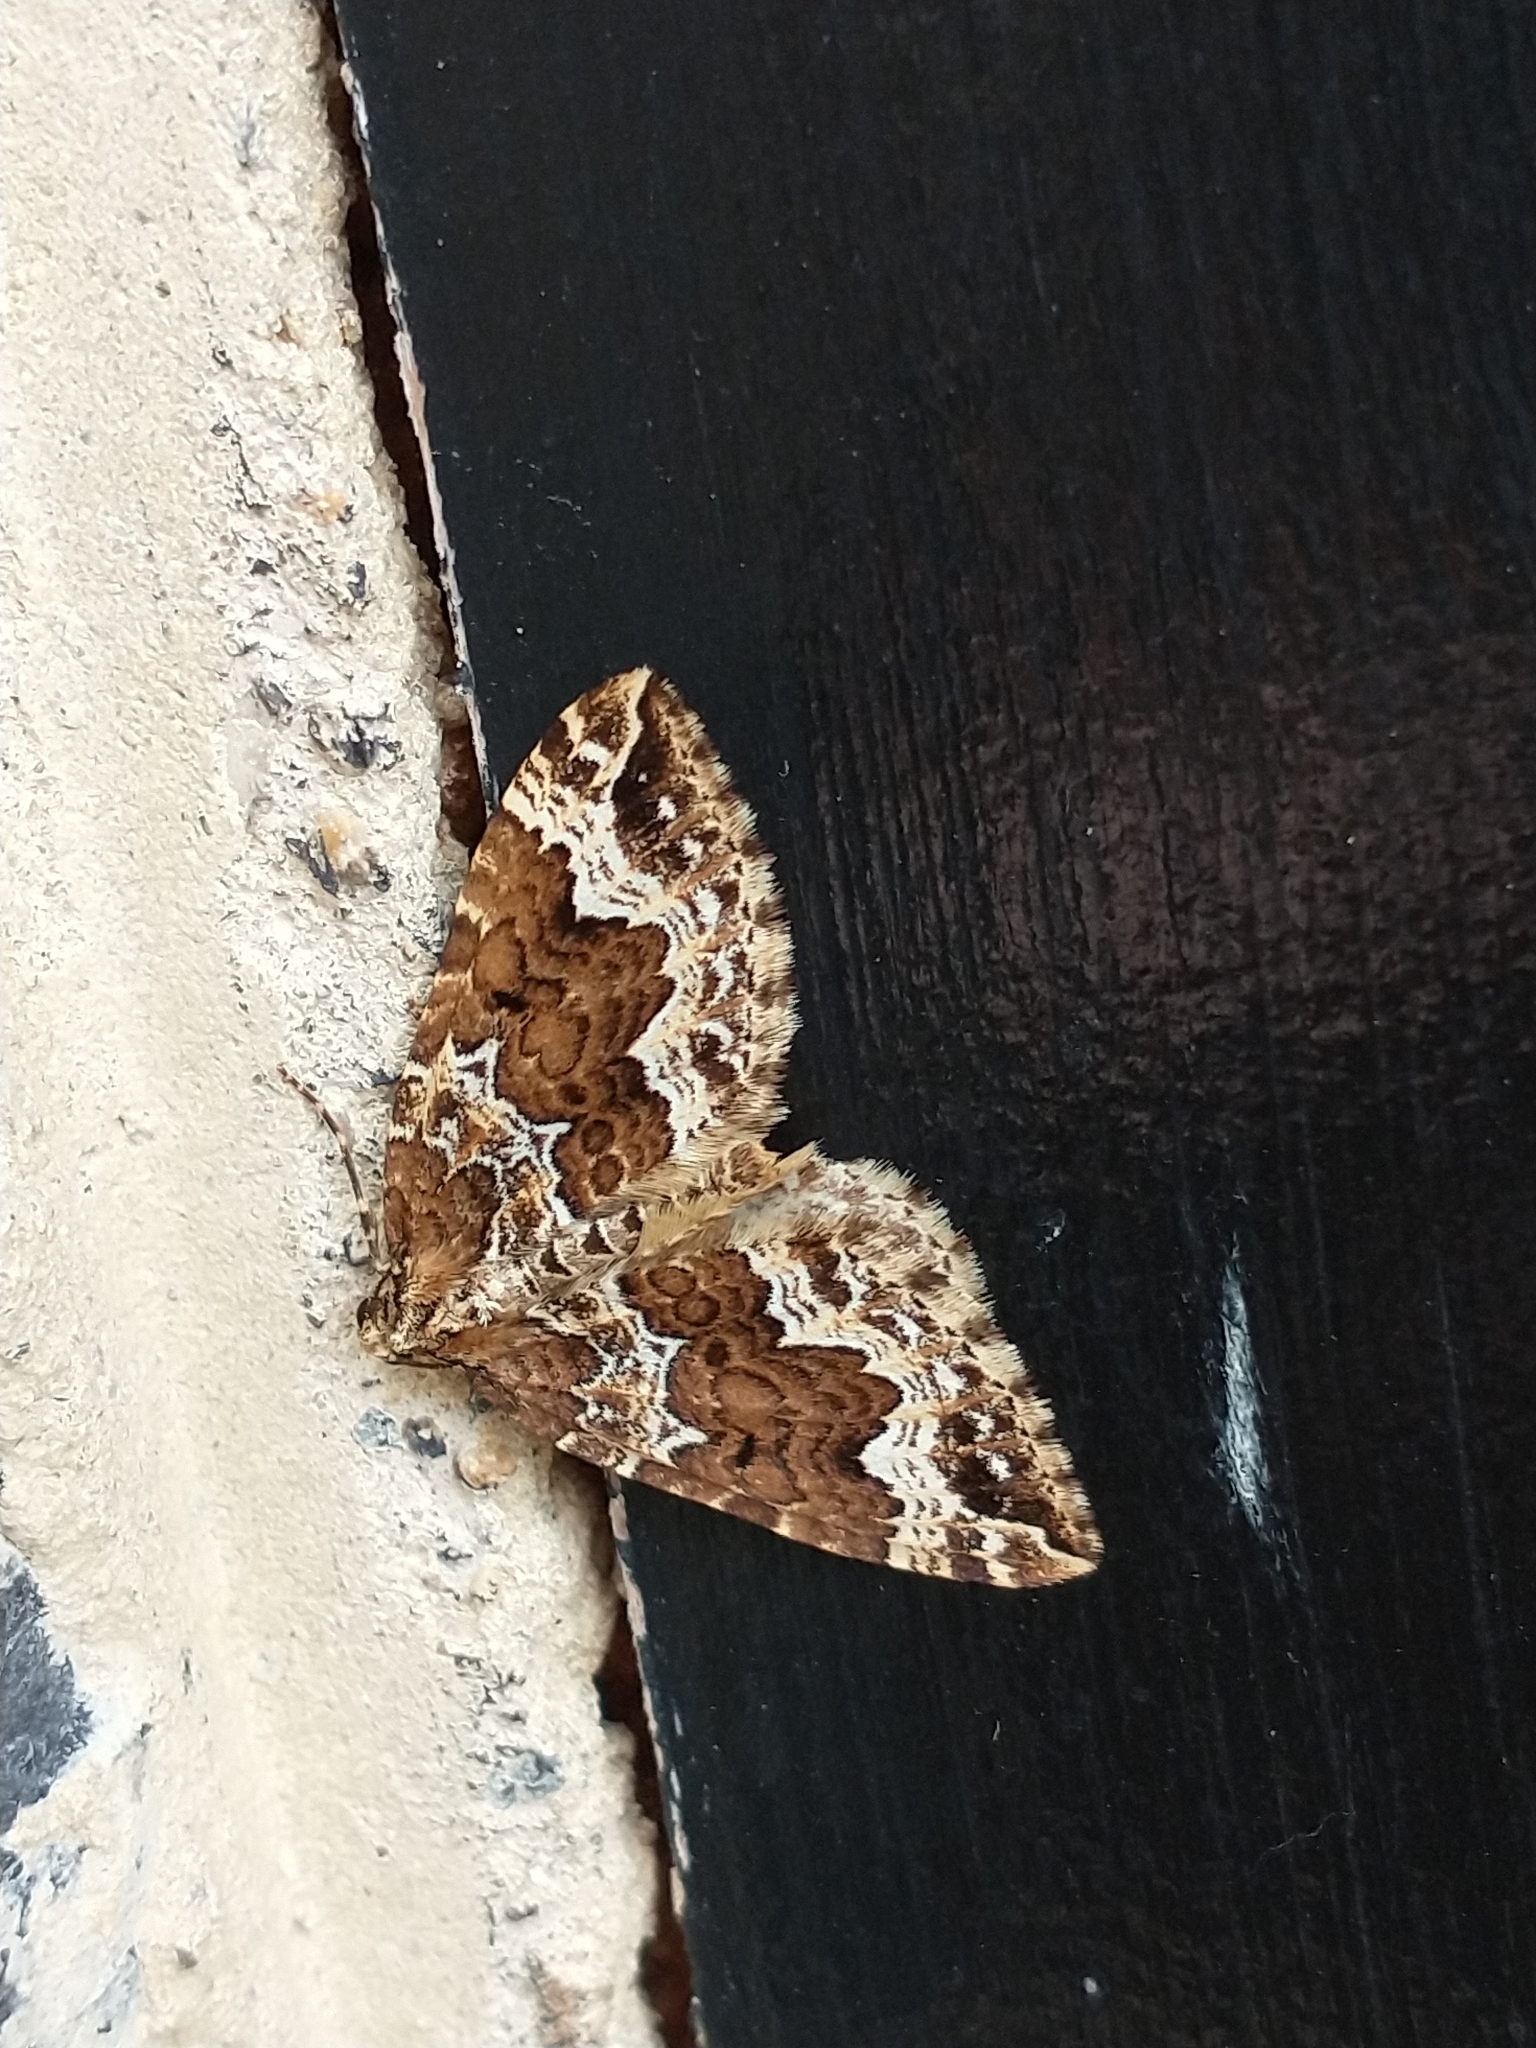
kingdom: Animalia
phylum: Arthropoda
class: Insecta
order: Lepidoptera
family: Geometridae
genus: Lampropteryx
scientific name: Lampropteryx suffumata
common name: Water carpet
